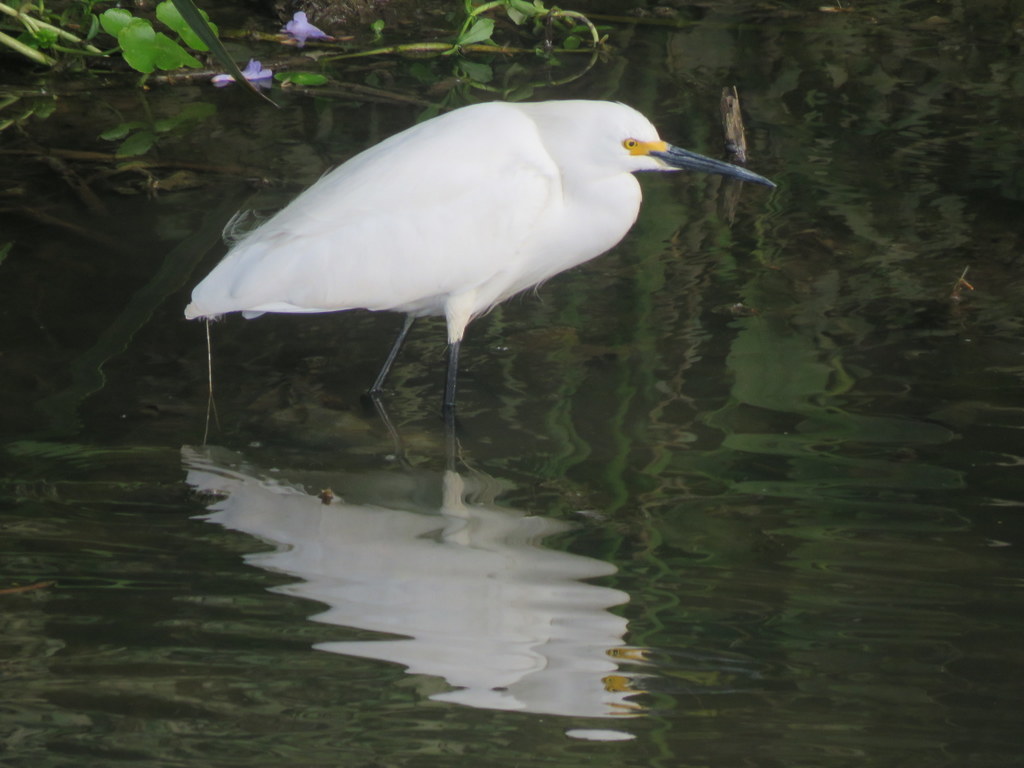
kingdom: Animalia
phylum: Chordata
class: Aves
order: Pelecaniformes
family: Ardeidae
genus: Egretta
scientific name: Egretta thula
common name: Snowy egret
